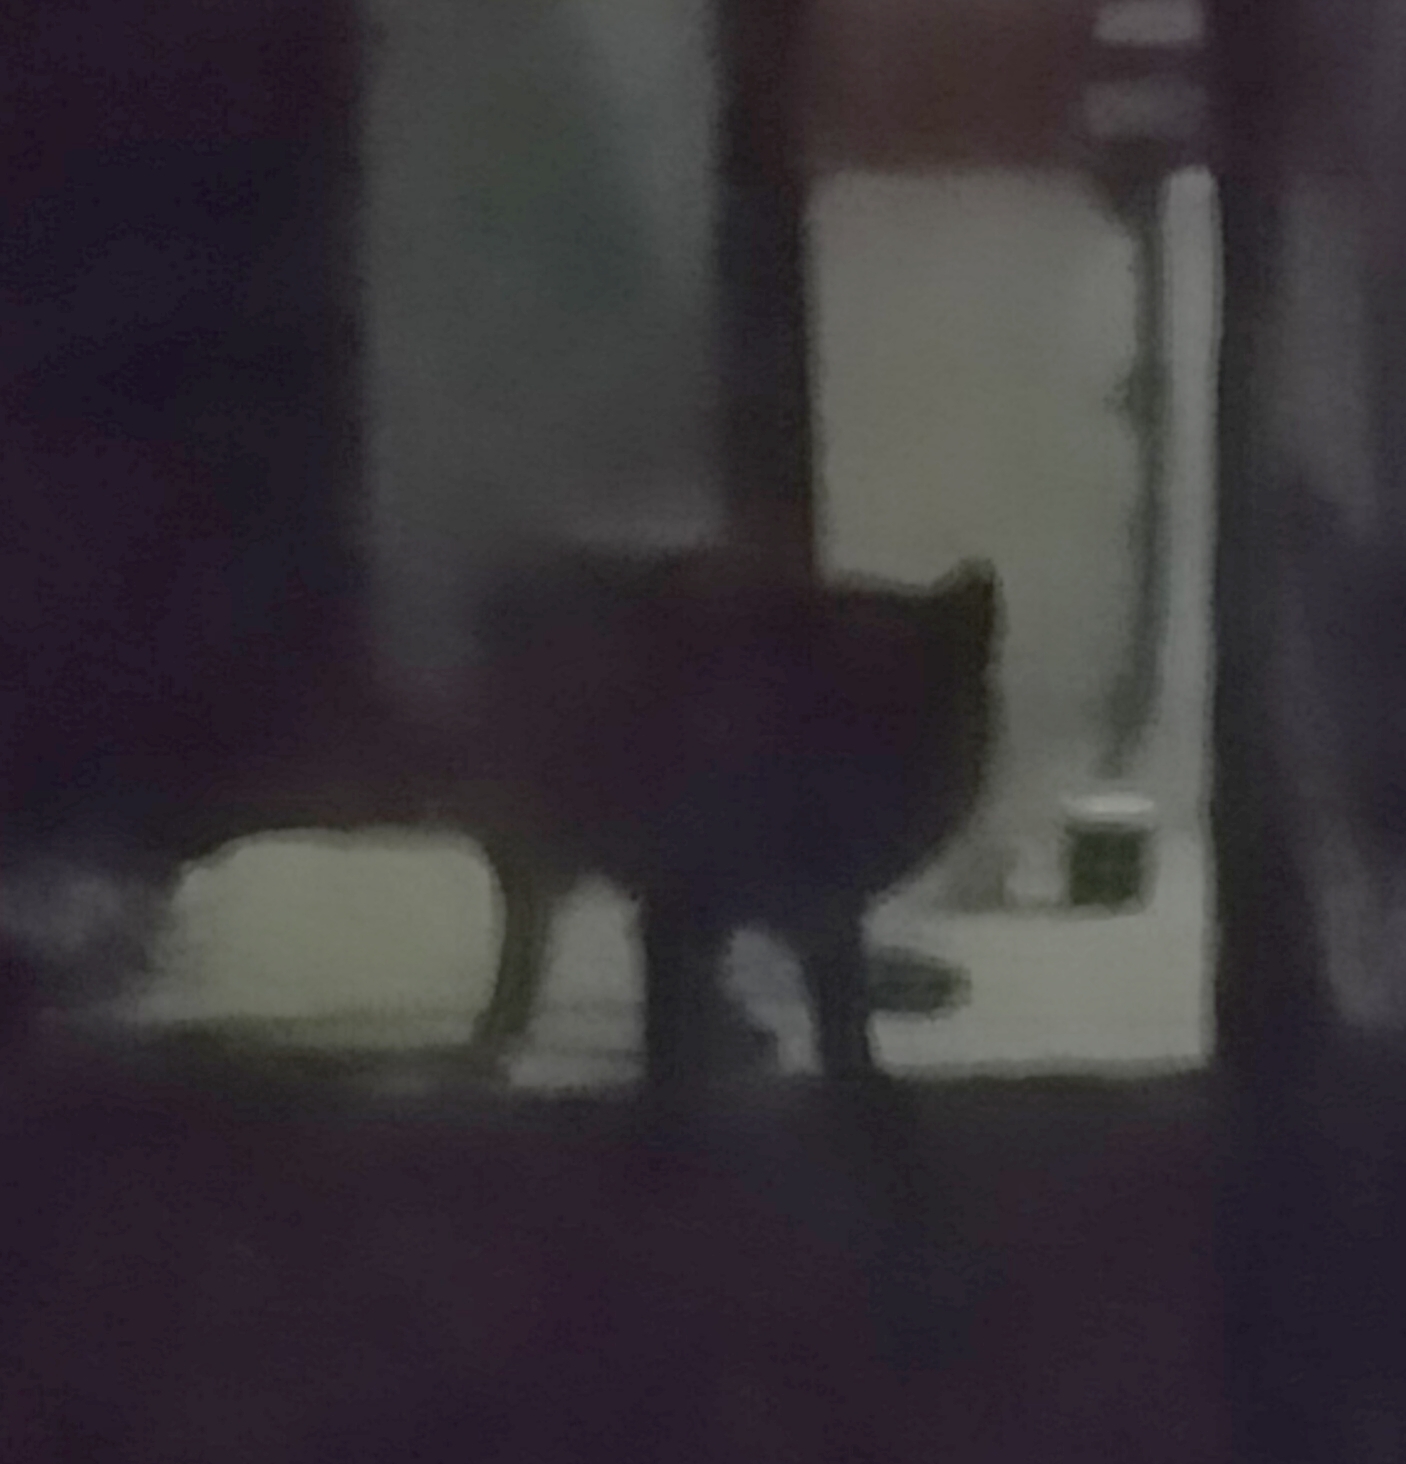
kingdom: Animalia
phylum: Chordata
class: Mammalia
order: Carnivora
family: Canidae
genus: Vulpes
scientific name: Vulpes vulpes
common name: Red fox
